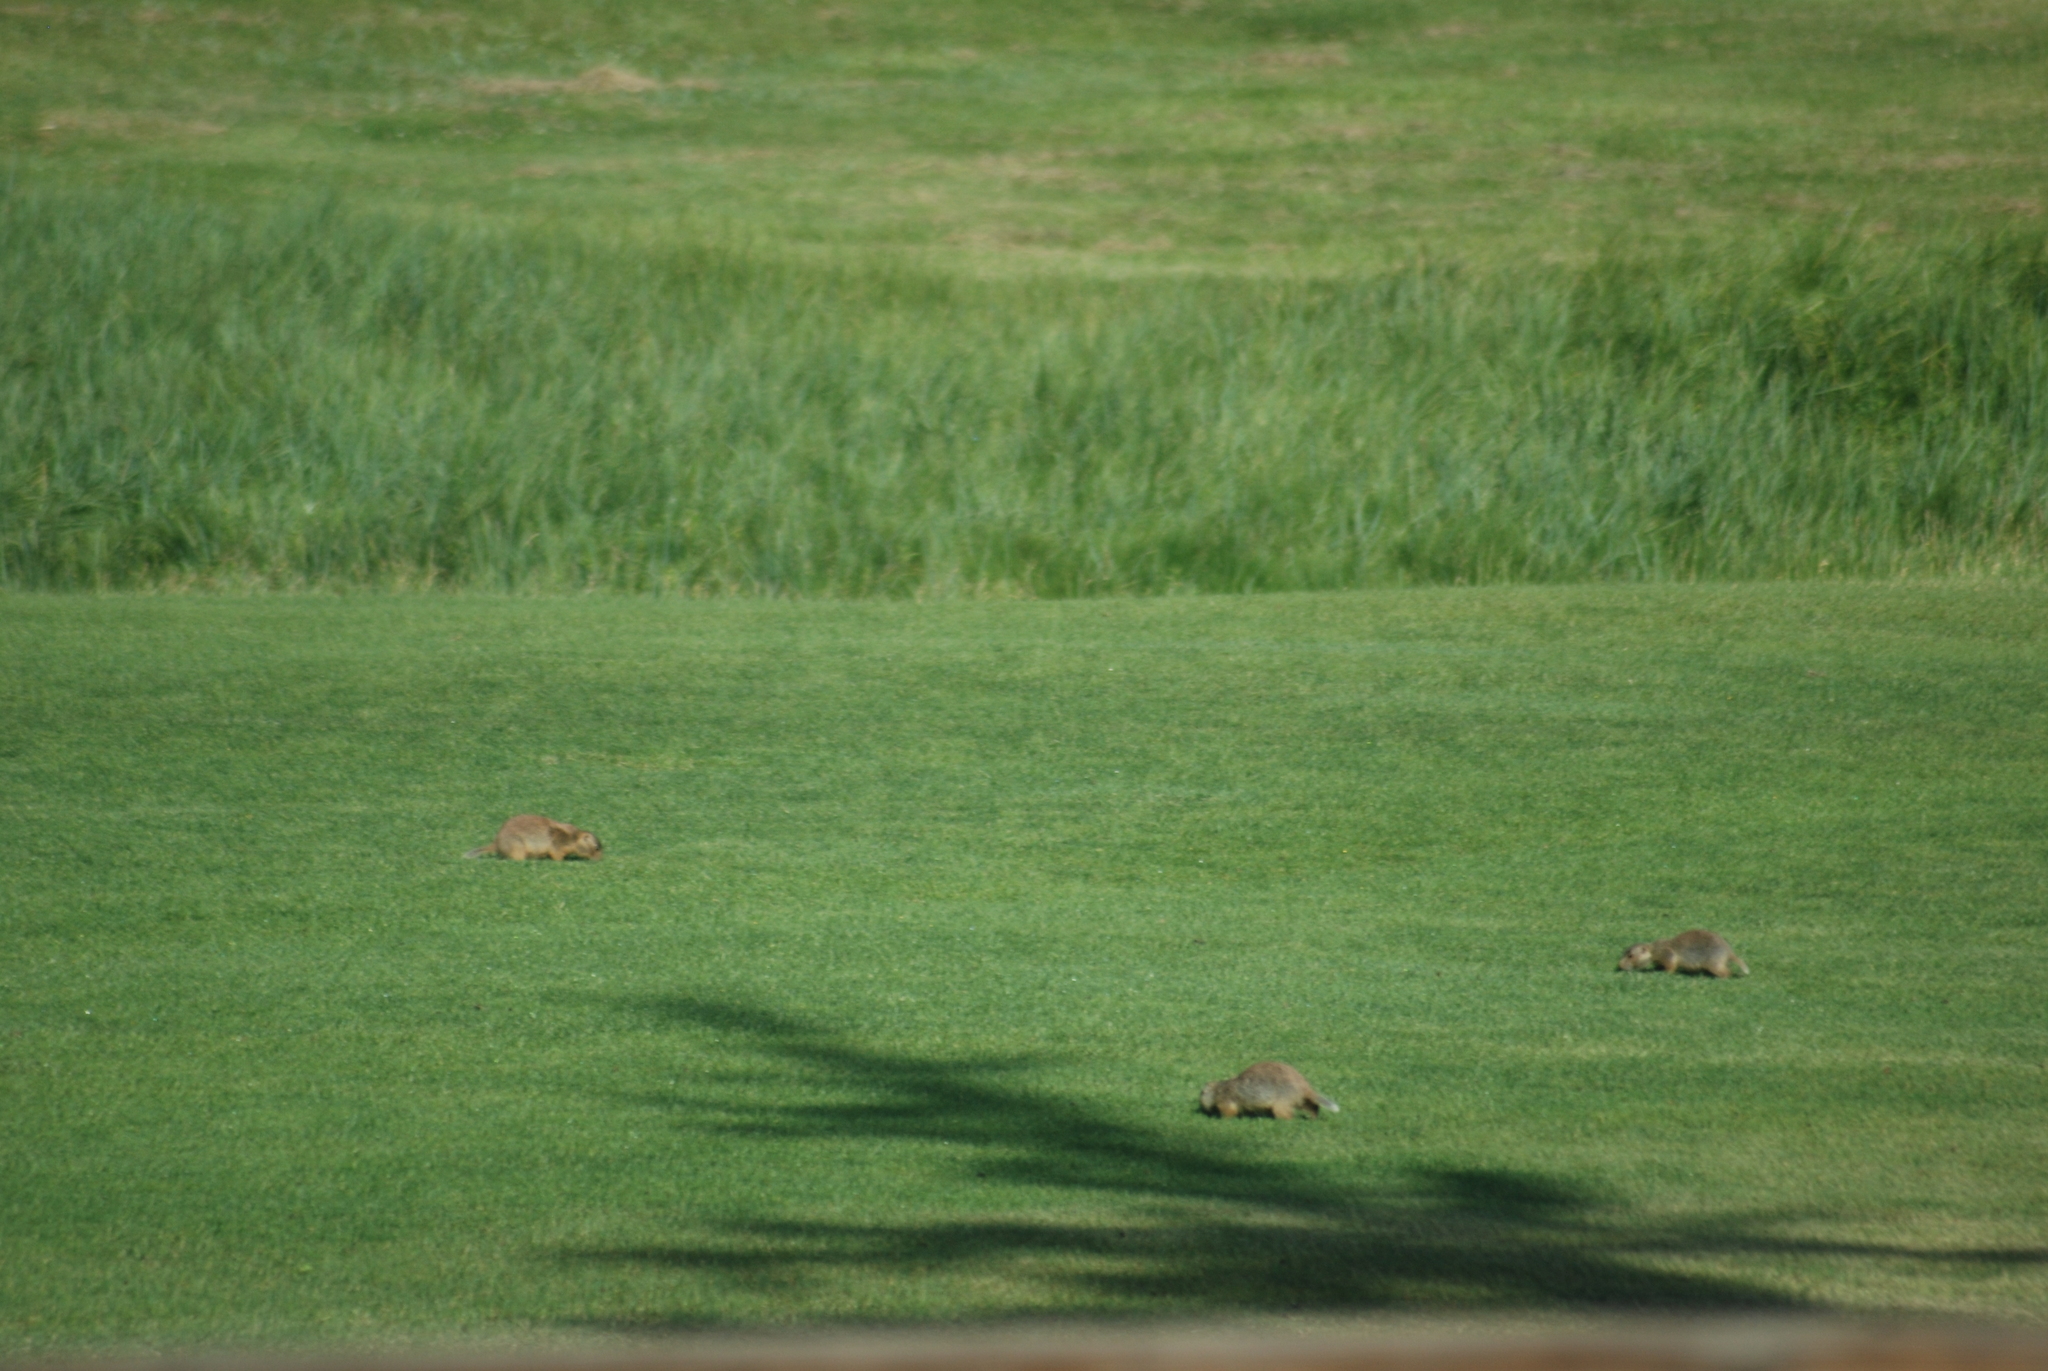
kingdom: Animalia
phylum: Chordata
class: Mammalia
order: Rodentia
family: Sciuridae
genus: Cynomys
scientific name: Cynomys gunnisoni
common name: Gunnison's prairie dog
